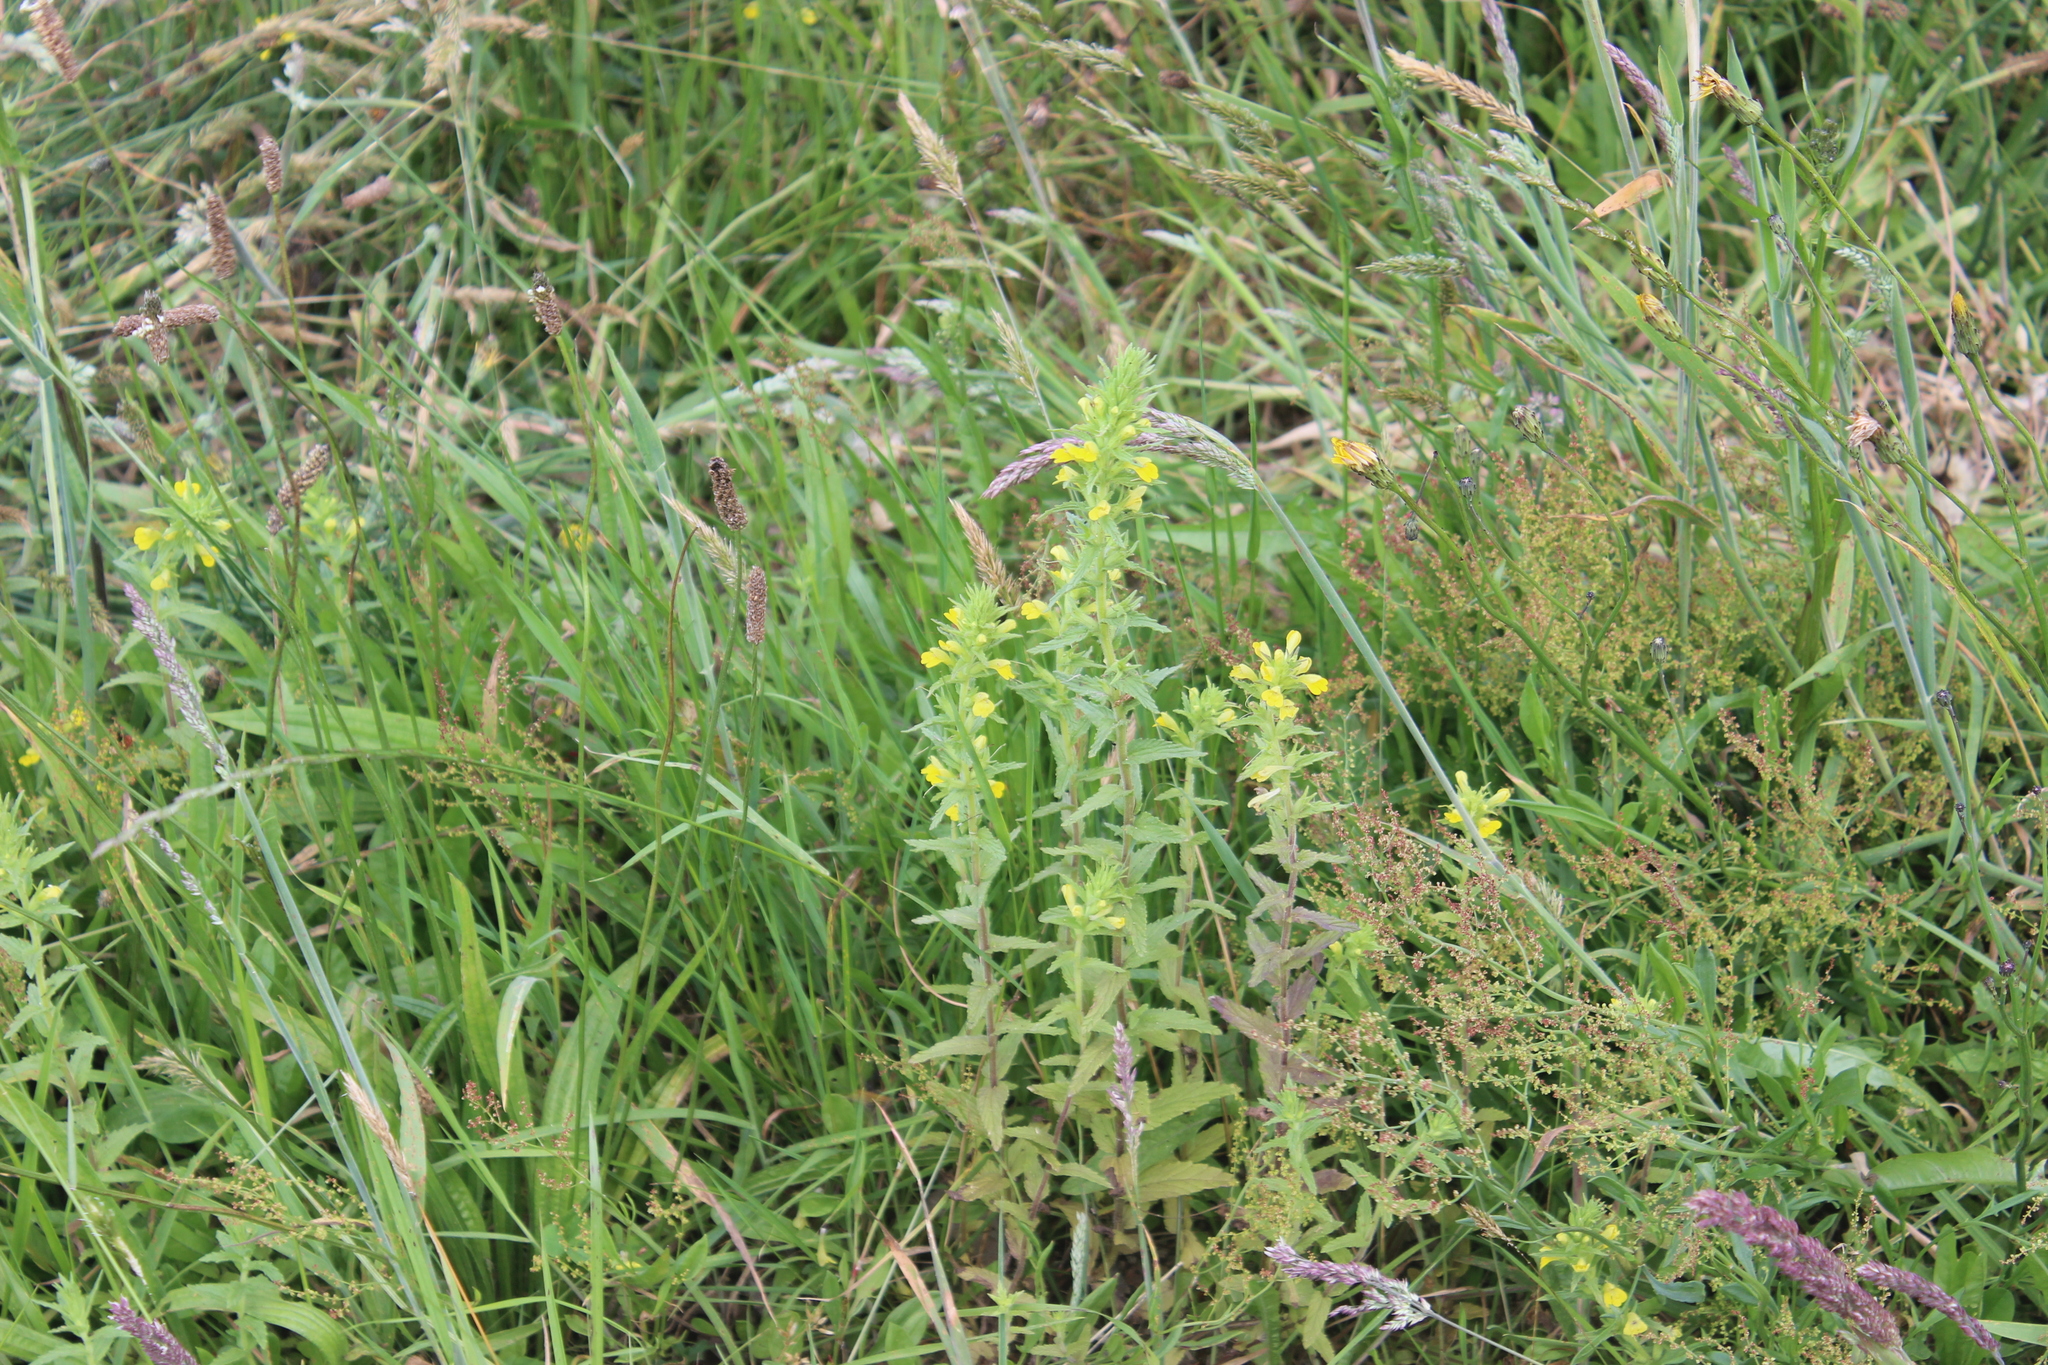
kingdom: Plantae
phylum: Tracheophyta
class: Magnoliopsida
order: Lamiales
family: Orobanchaceae
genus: Bellardia
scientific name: Bellardia viscosa
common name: Sticky parentucellia
